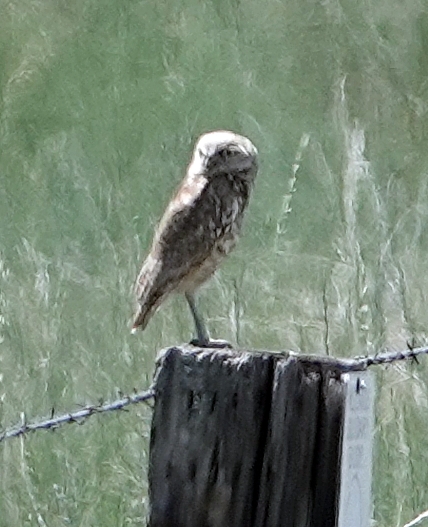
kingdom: Animalia
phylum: Chordata
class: Aves
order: Strigiformes
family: Strigidae
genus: Athene
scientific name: Athene cunicularia
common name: Burrowing owl
